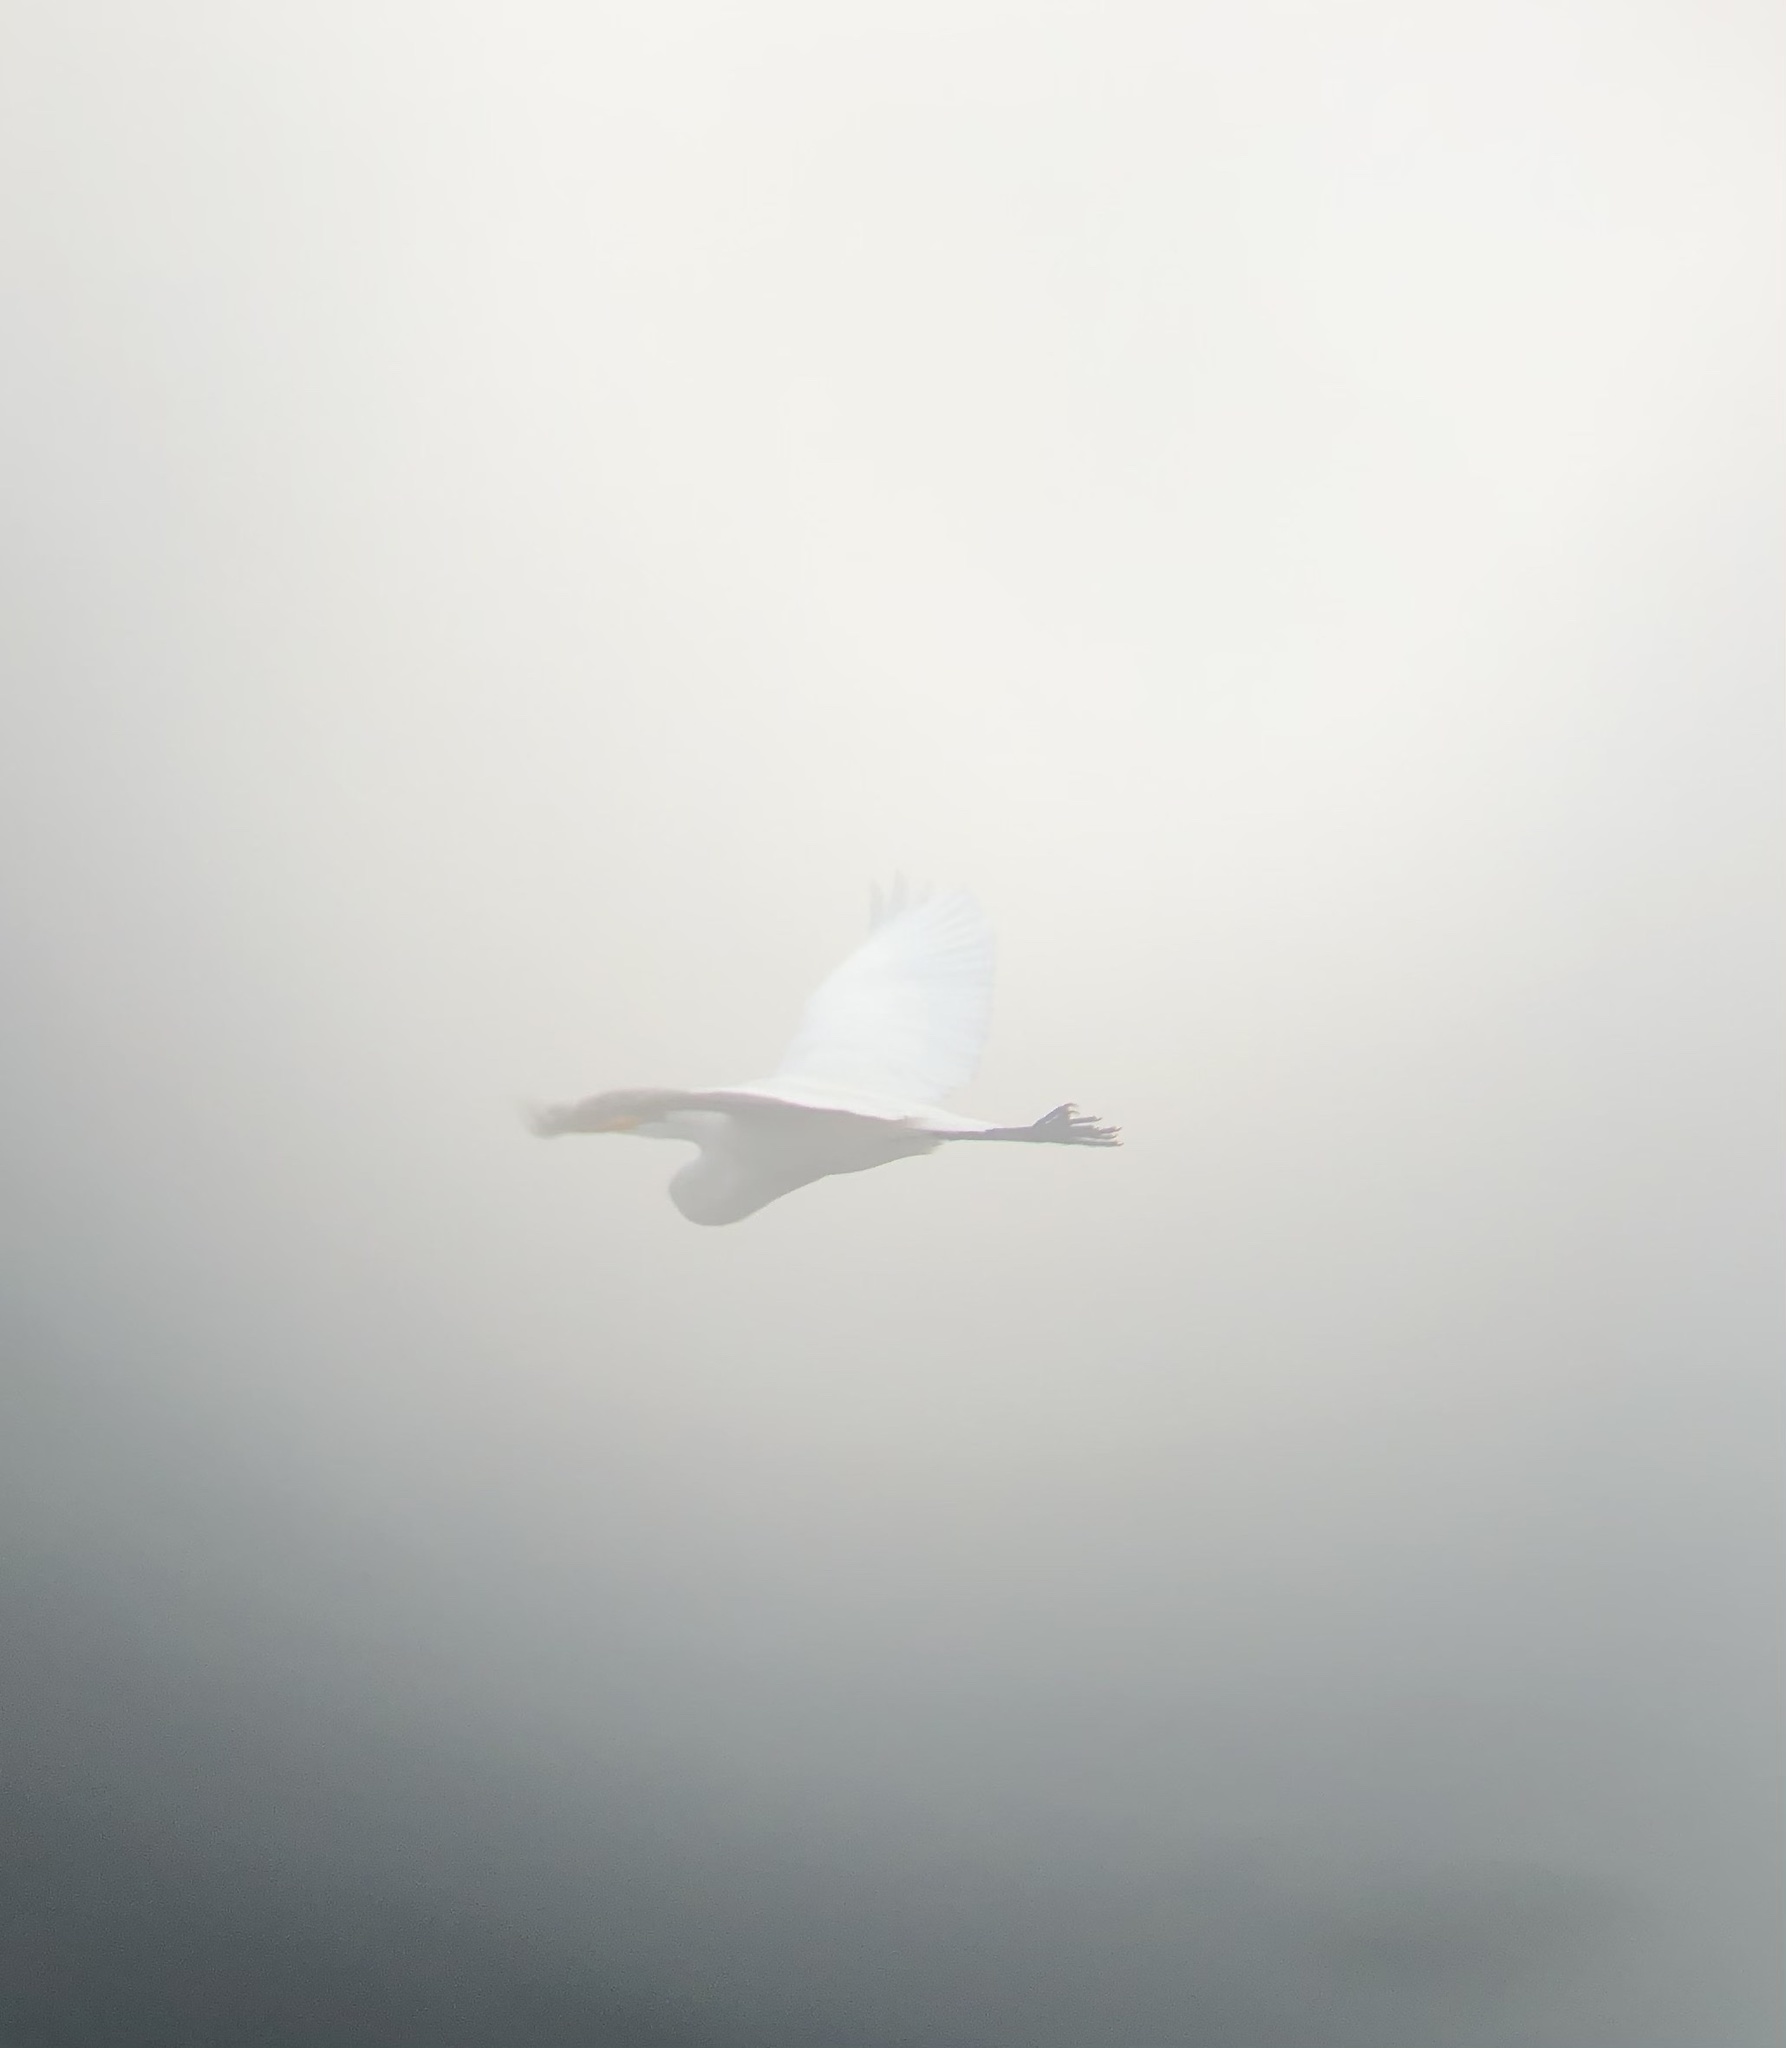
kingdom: Animalia
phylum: Chordata
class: Aves
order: Pelecaniformes
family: Ardeidae
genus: Ardea
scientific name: Ardea alba
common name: Great egret
